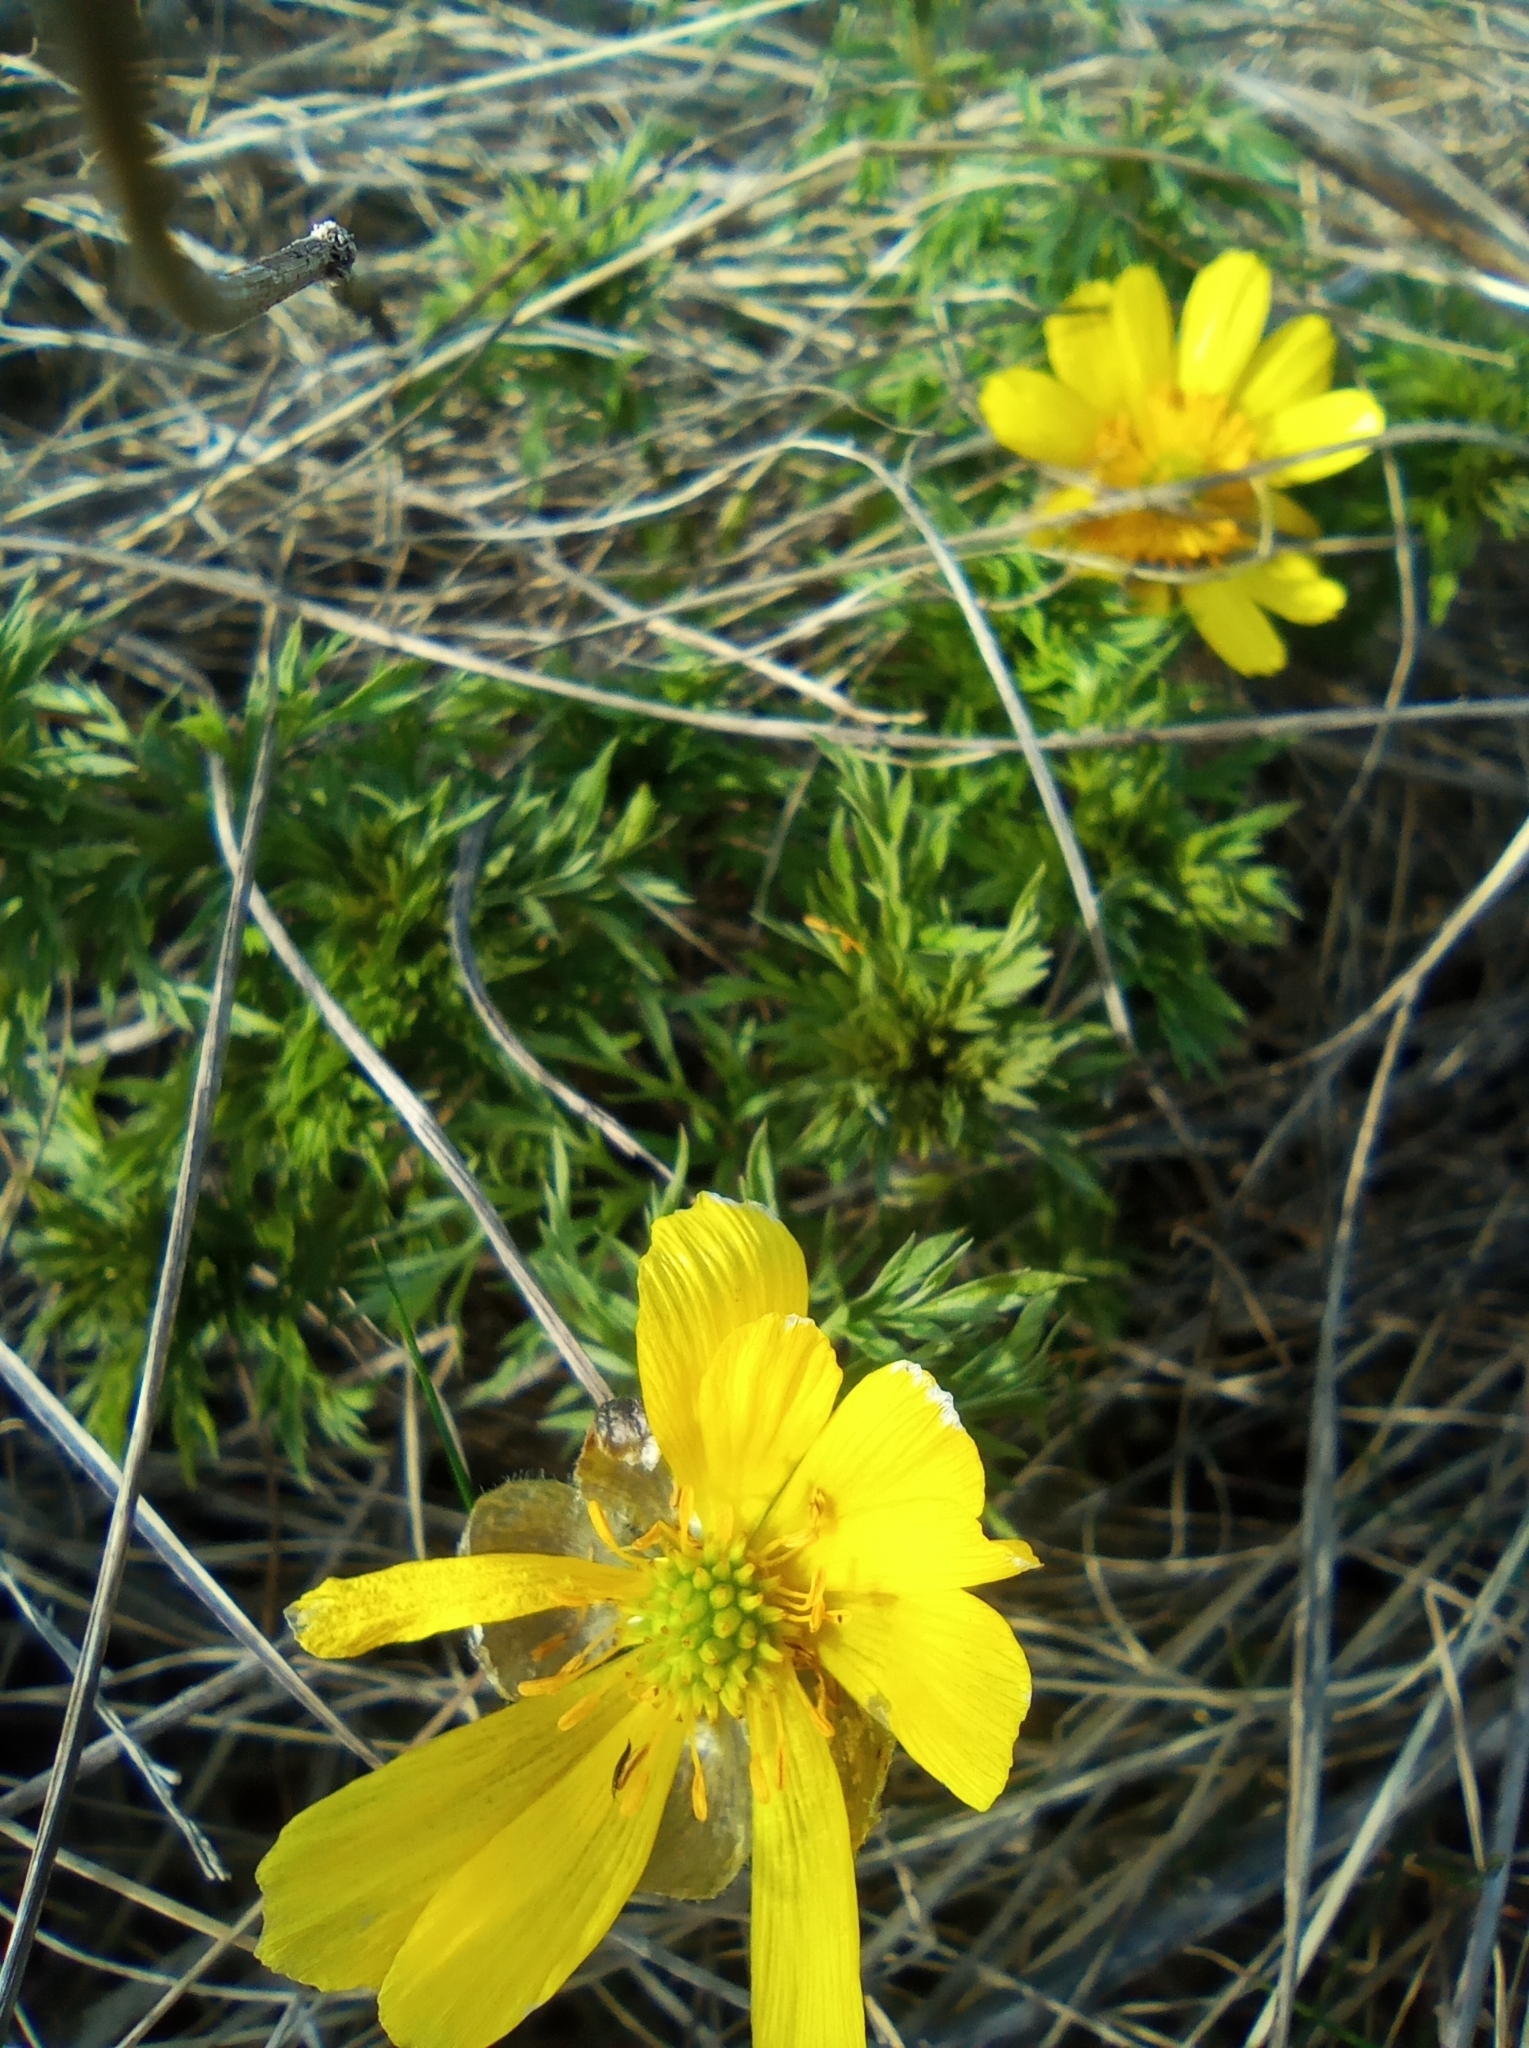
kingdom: Plantae
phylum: Tracheophyta
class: Magnoliopsida
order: Ranunculales
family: Ranunculaceae
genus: Adonis
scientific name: Adonis volgensis
